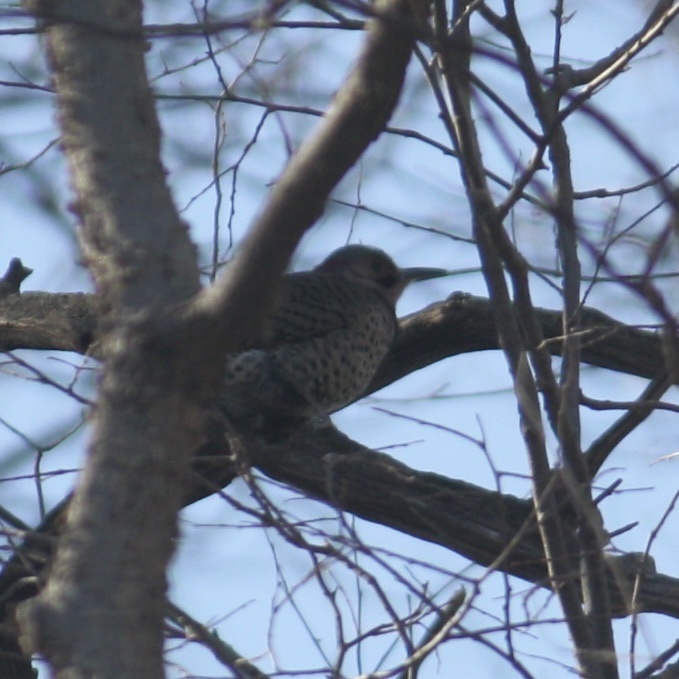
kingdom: Animalia
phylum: Chordata
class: Aves
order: Piciformes
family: Picidae
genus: Colaptes
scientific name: Colaptes auratus
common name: Northern flicker
